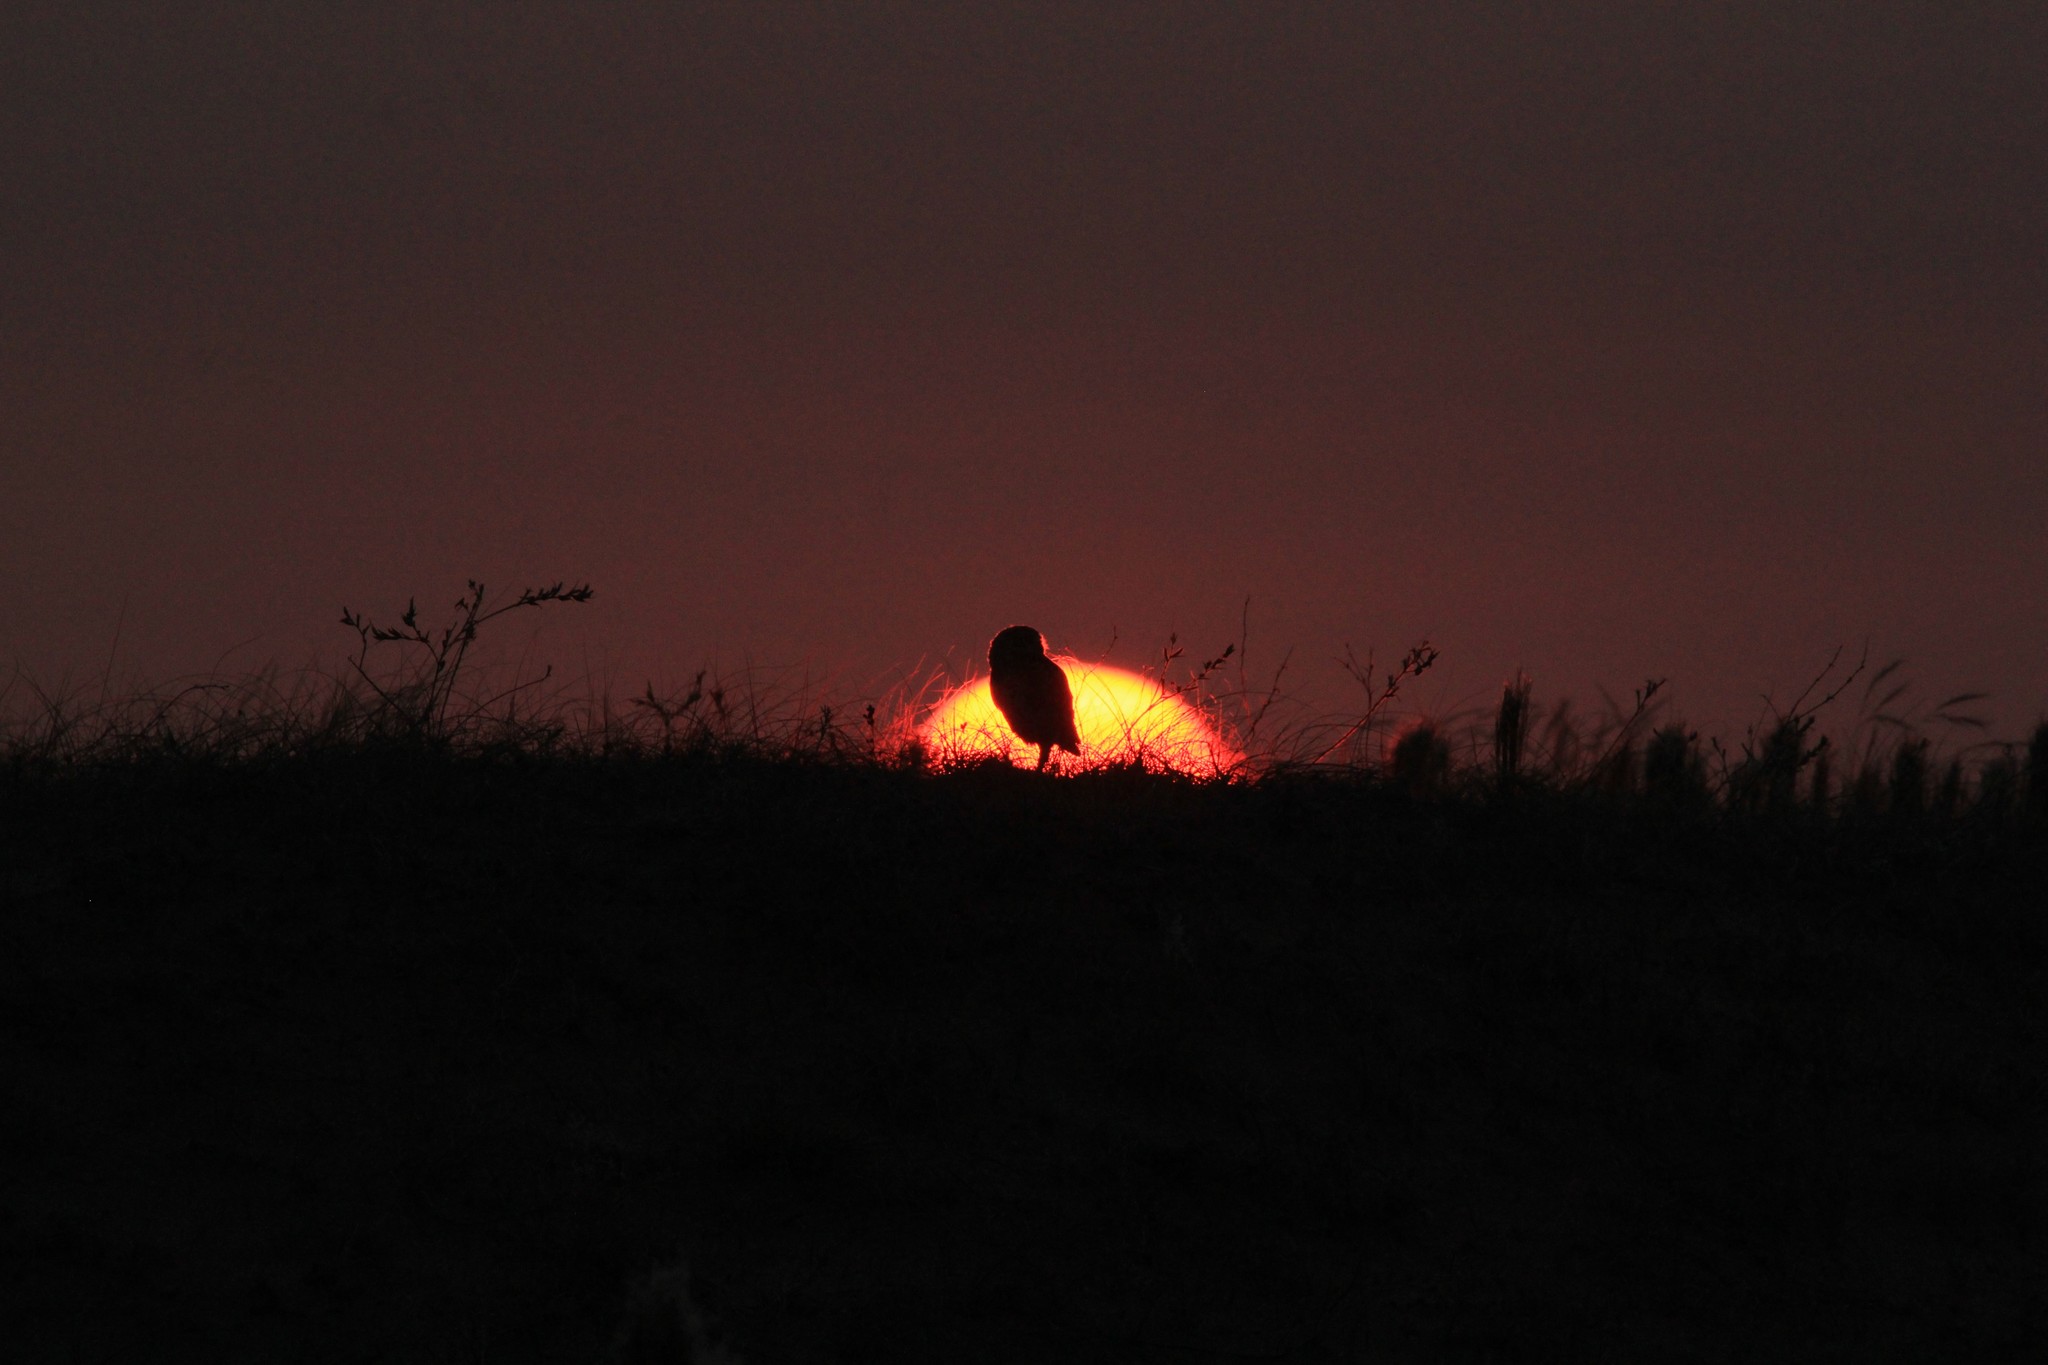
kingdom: Animalia
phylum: Chordata
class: Aves
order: Strigiformes
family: Strigidae
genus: Athene
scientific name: Athene cunicularia
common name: Burrowing owl
